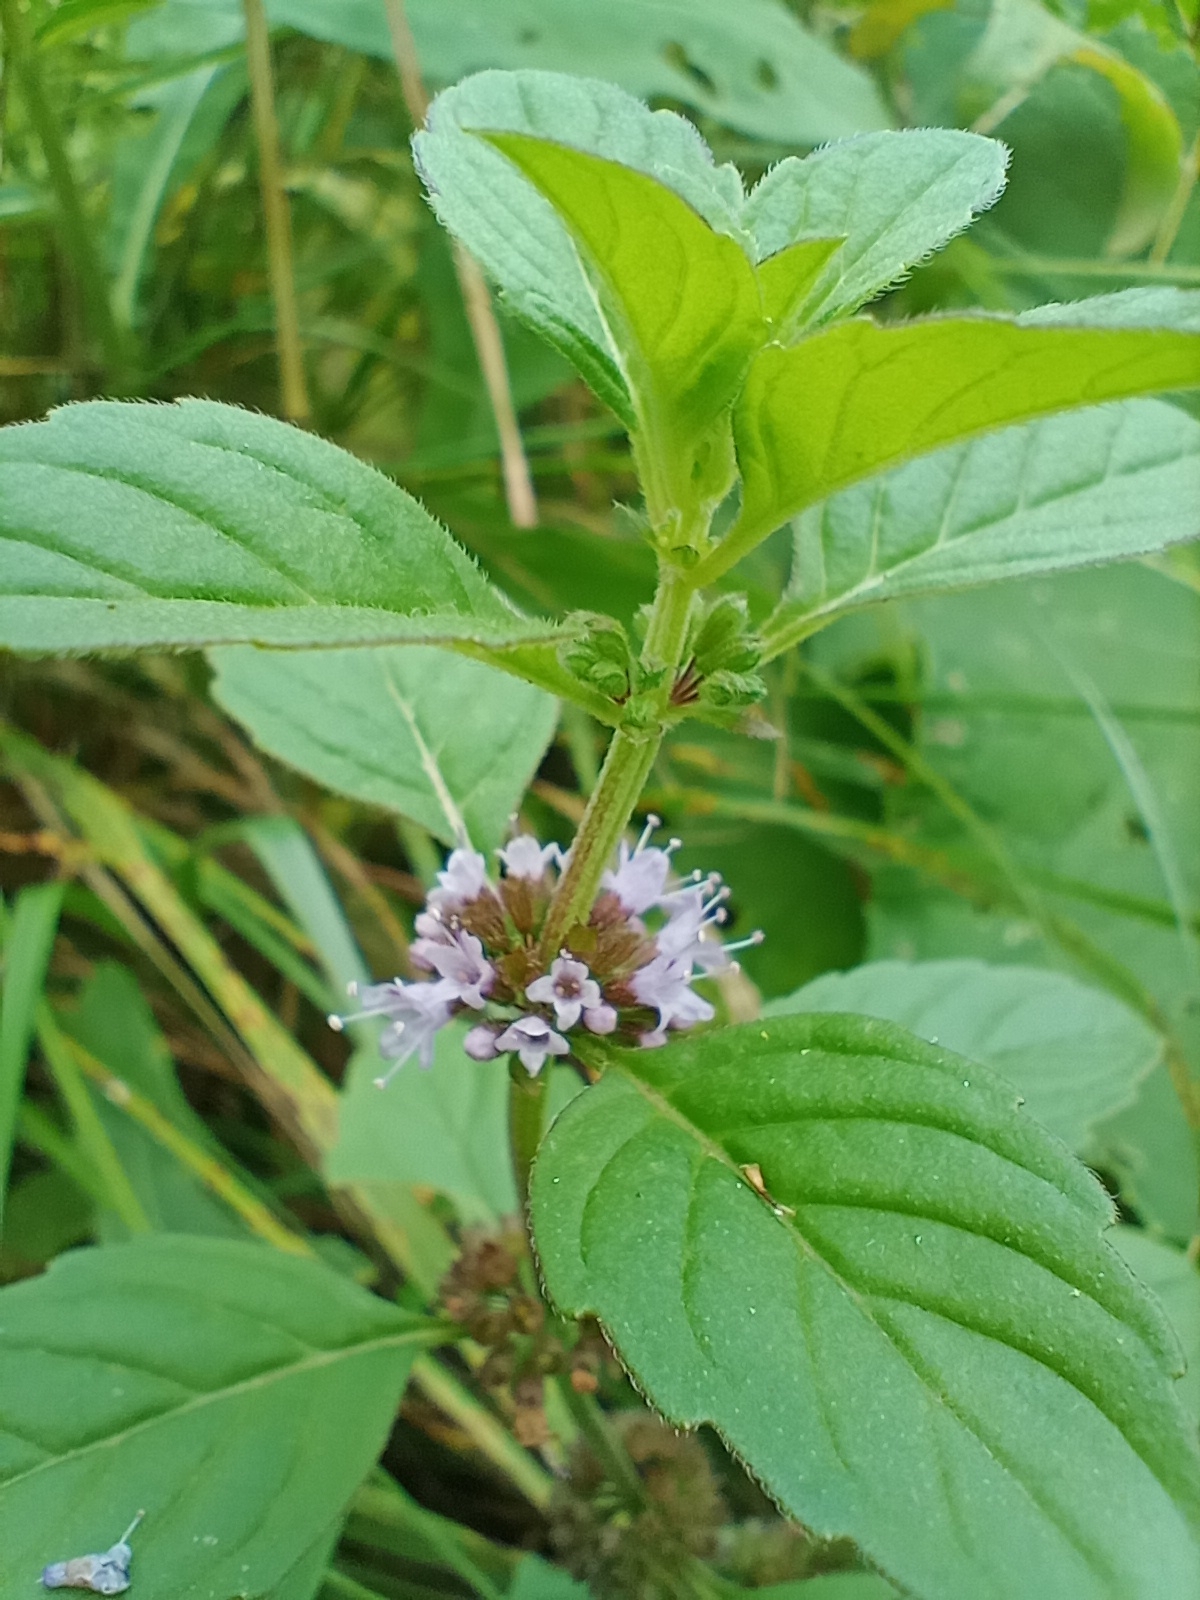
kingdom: Plantae
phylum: Tracheophyta
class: Magnoliopsida
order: Lamiales
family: Lamiaceae
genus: Mentha
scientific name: Mentha arvensis
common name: Corn mint
